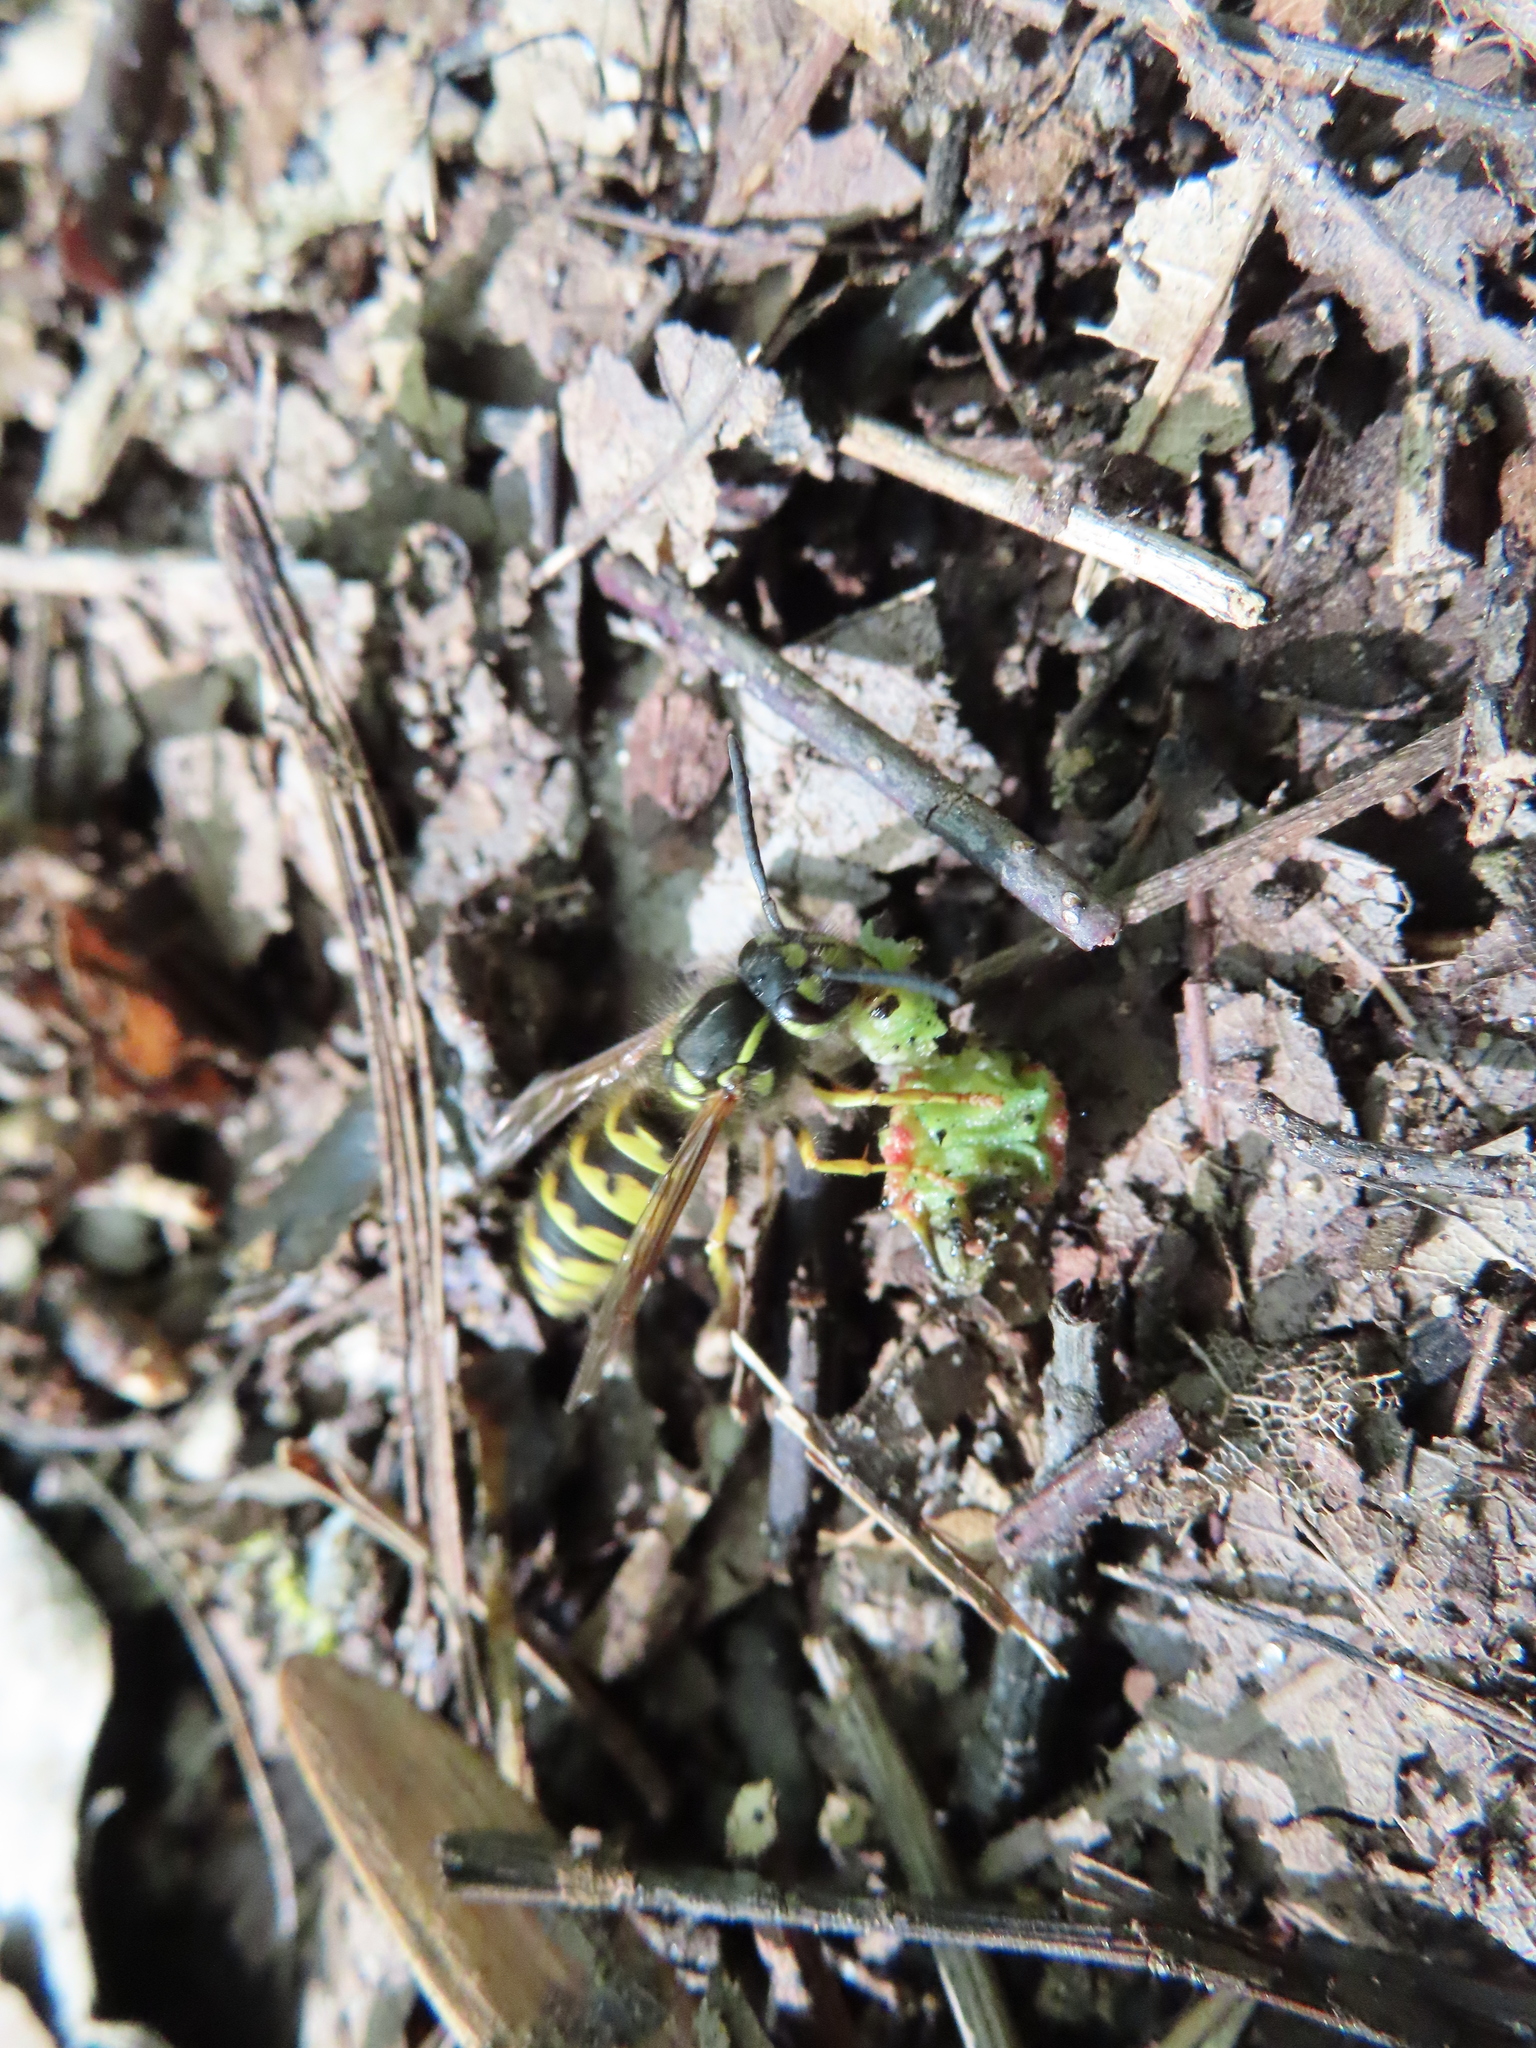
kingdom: Animalia
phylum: Arthropoda
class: Insecta
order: Hymenoptera
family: Vespidae
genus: Vespula
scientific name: Vespula flavopilosa
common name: Downy yellowjacket
